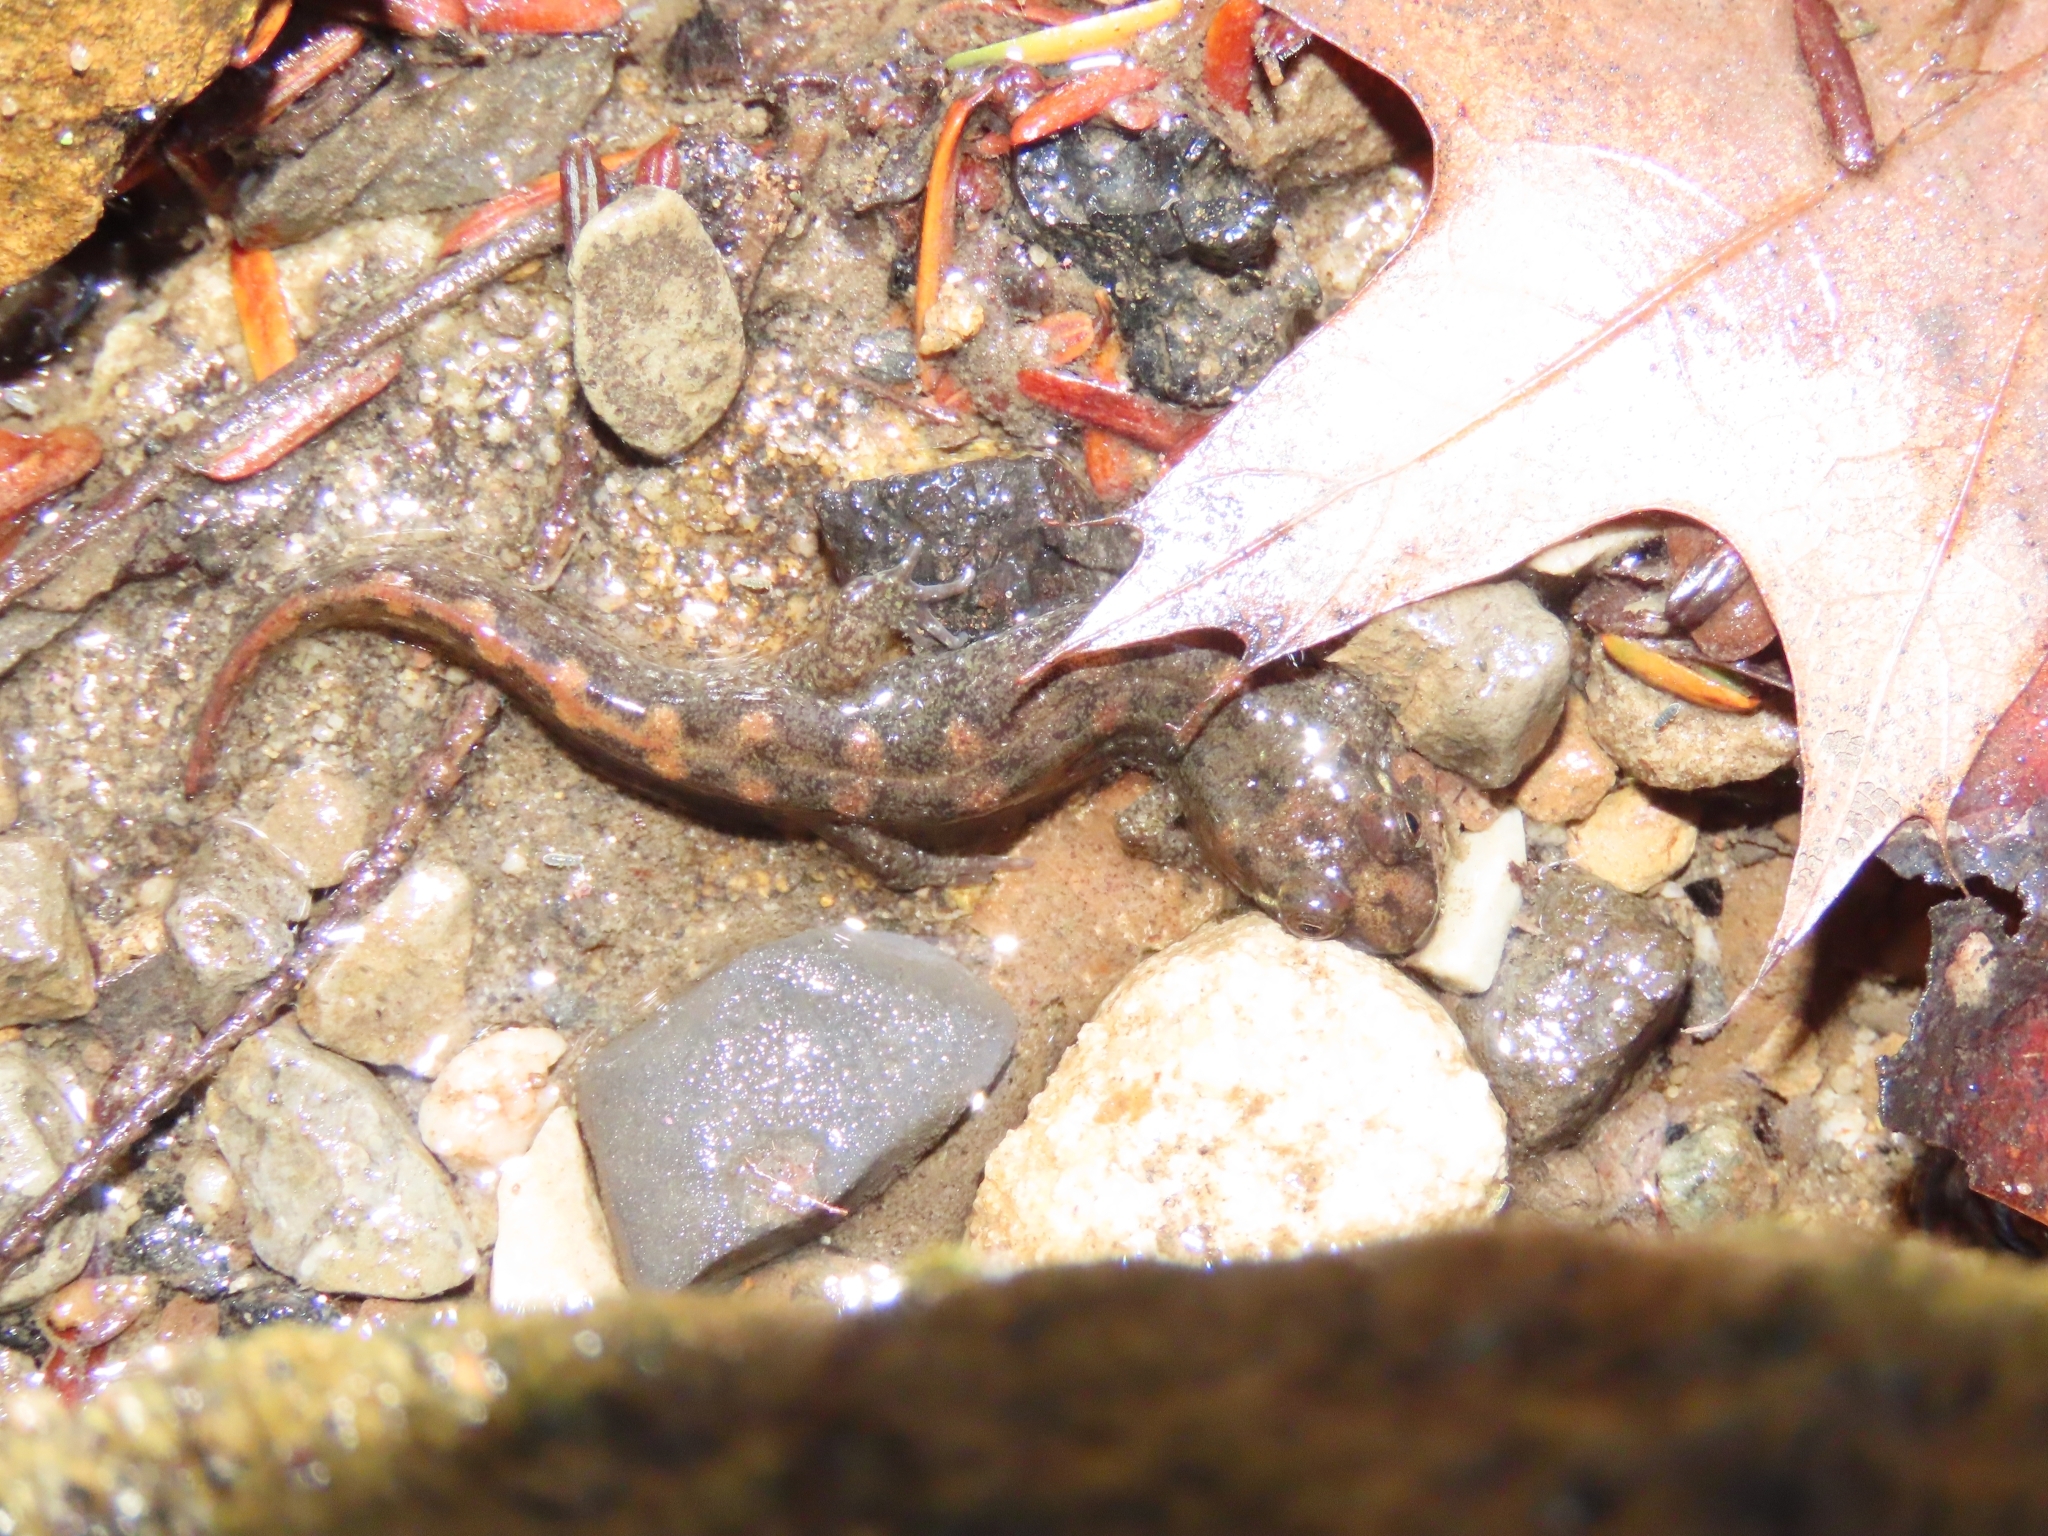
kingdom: Animalia
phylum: Chordata
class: Amphibia
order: Caudata
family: Plethodontidae
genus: Desmognathus
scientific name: Desmognathus monticola
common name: Seal salamander
